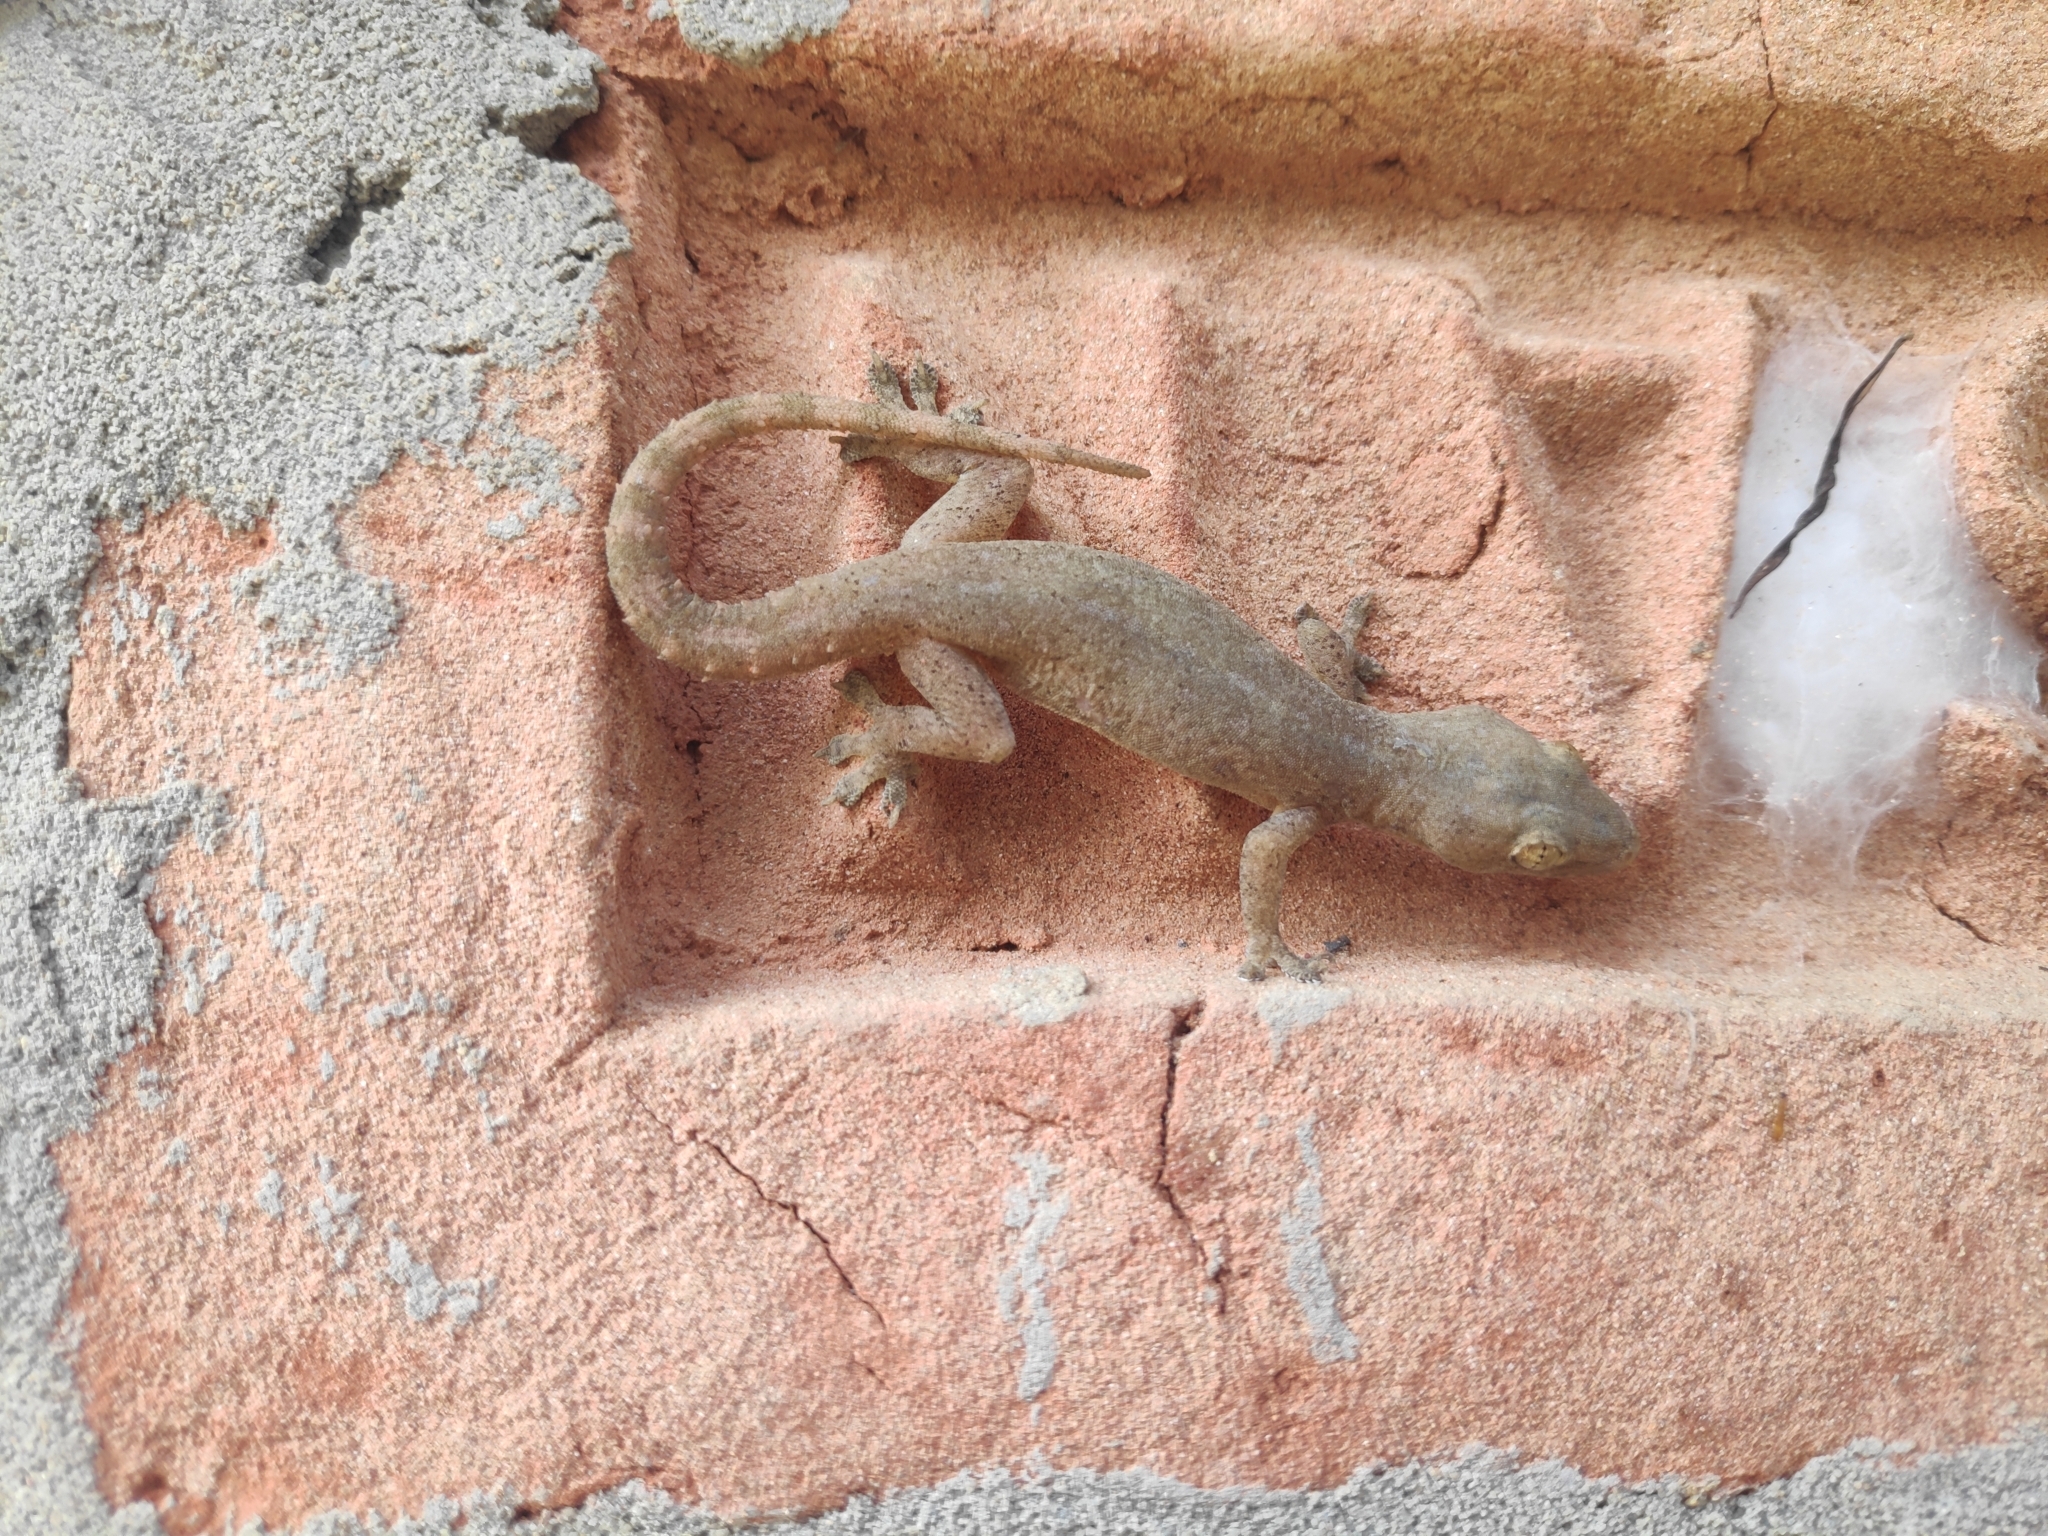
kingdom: Animalia
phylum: Chordata
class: Squamata
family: Gekkonidae
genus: Hemidactylus
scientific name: Hemidactylus frenatus
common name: Common house gecko
